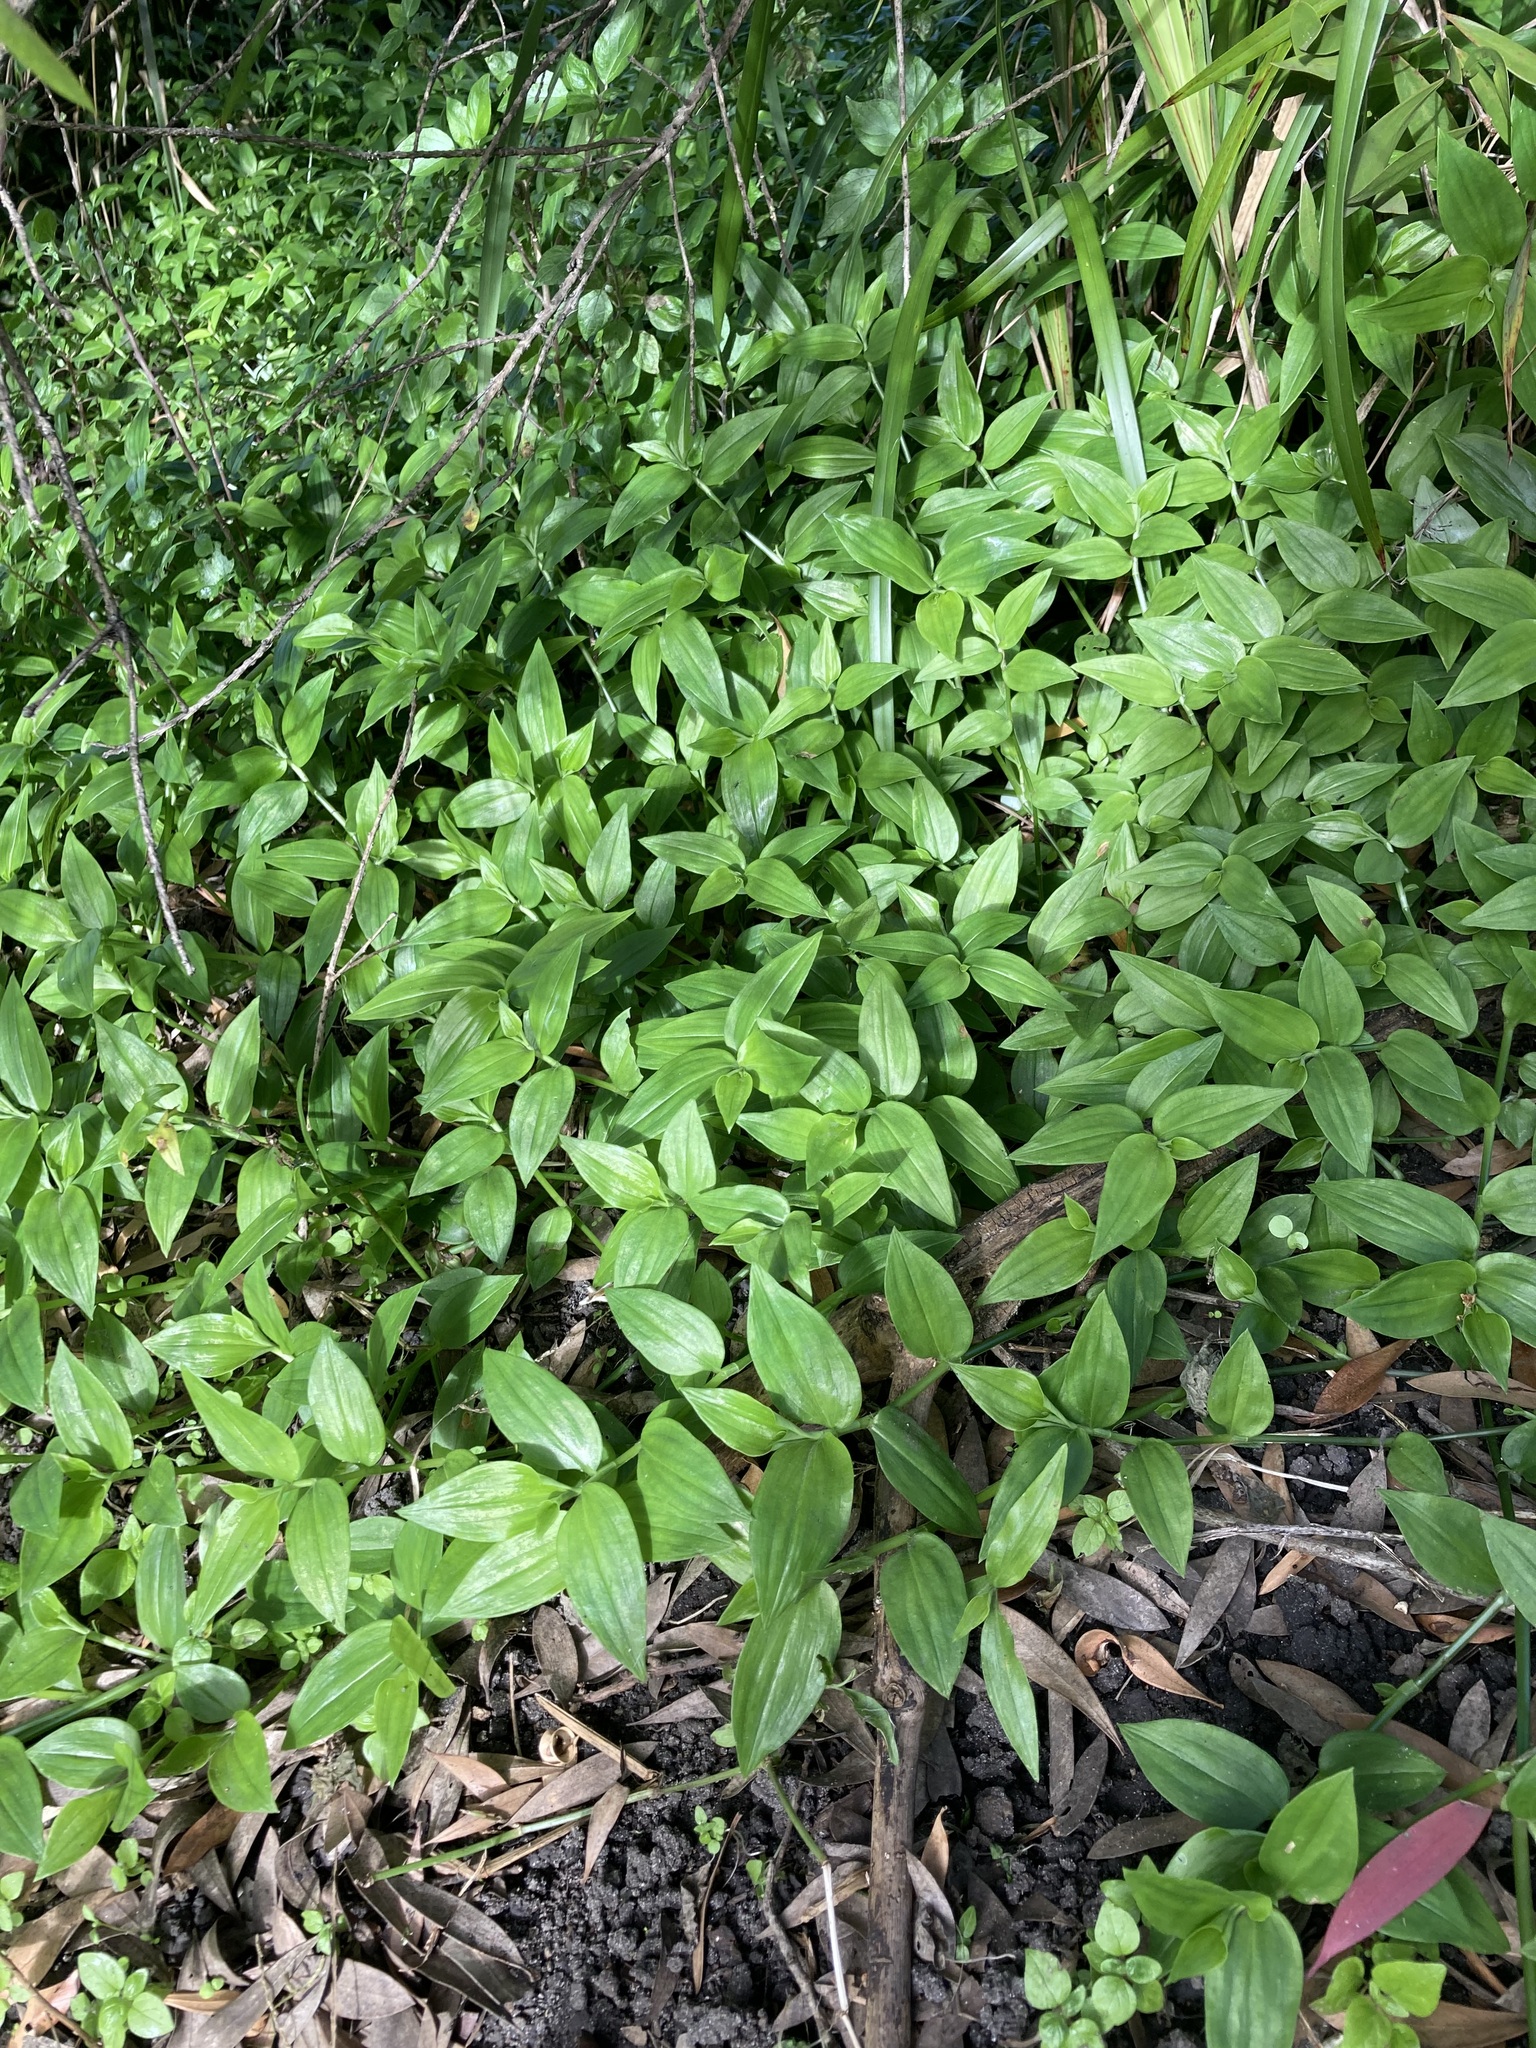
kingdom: Plantae
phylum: Tracheophyta
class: Liliopsida
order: Commelinales
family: Commelinaceae
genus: Tradescantia
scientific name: Tradescantia fluminensis
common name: Wandering-jew
